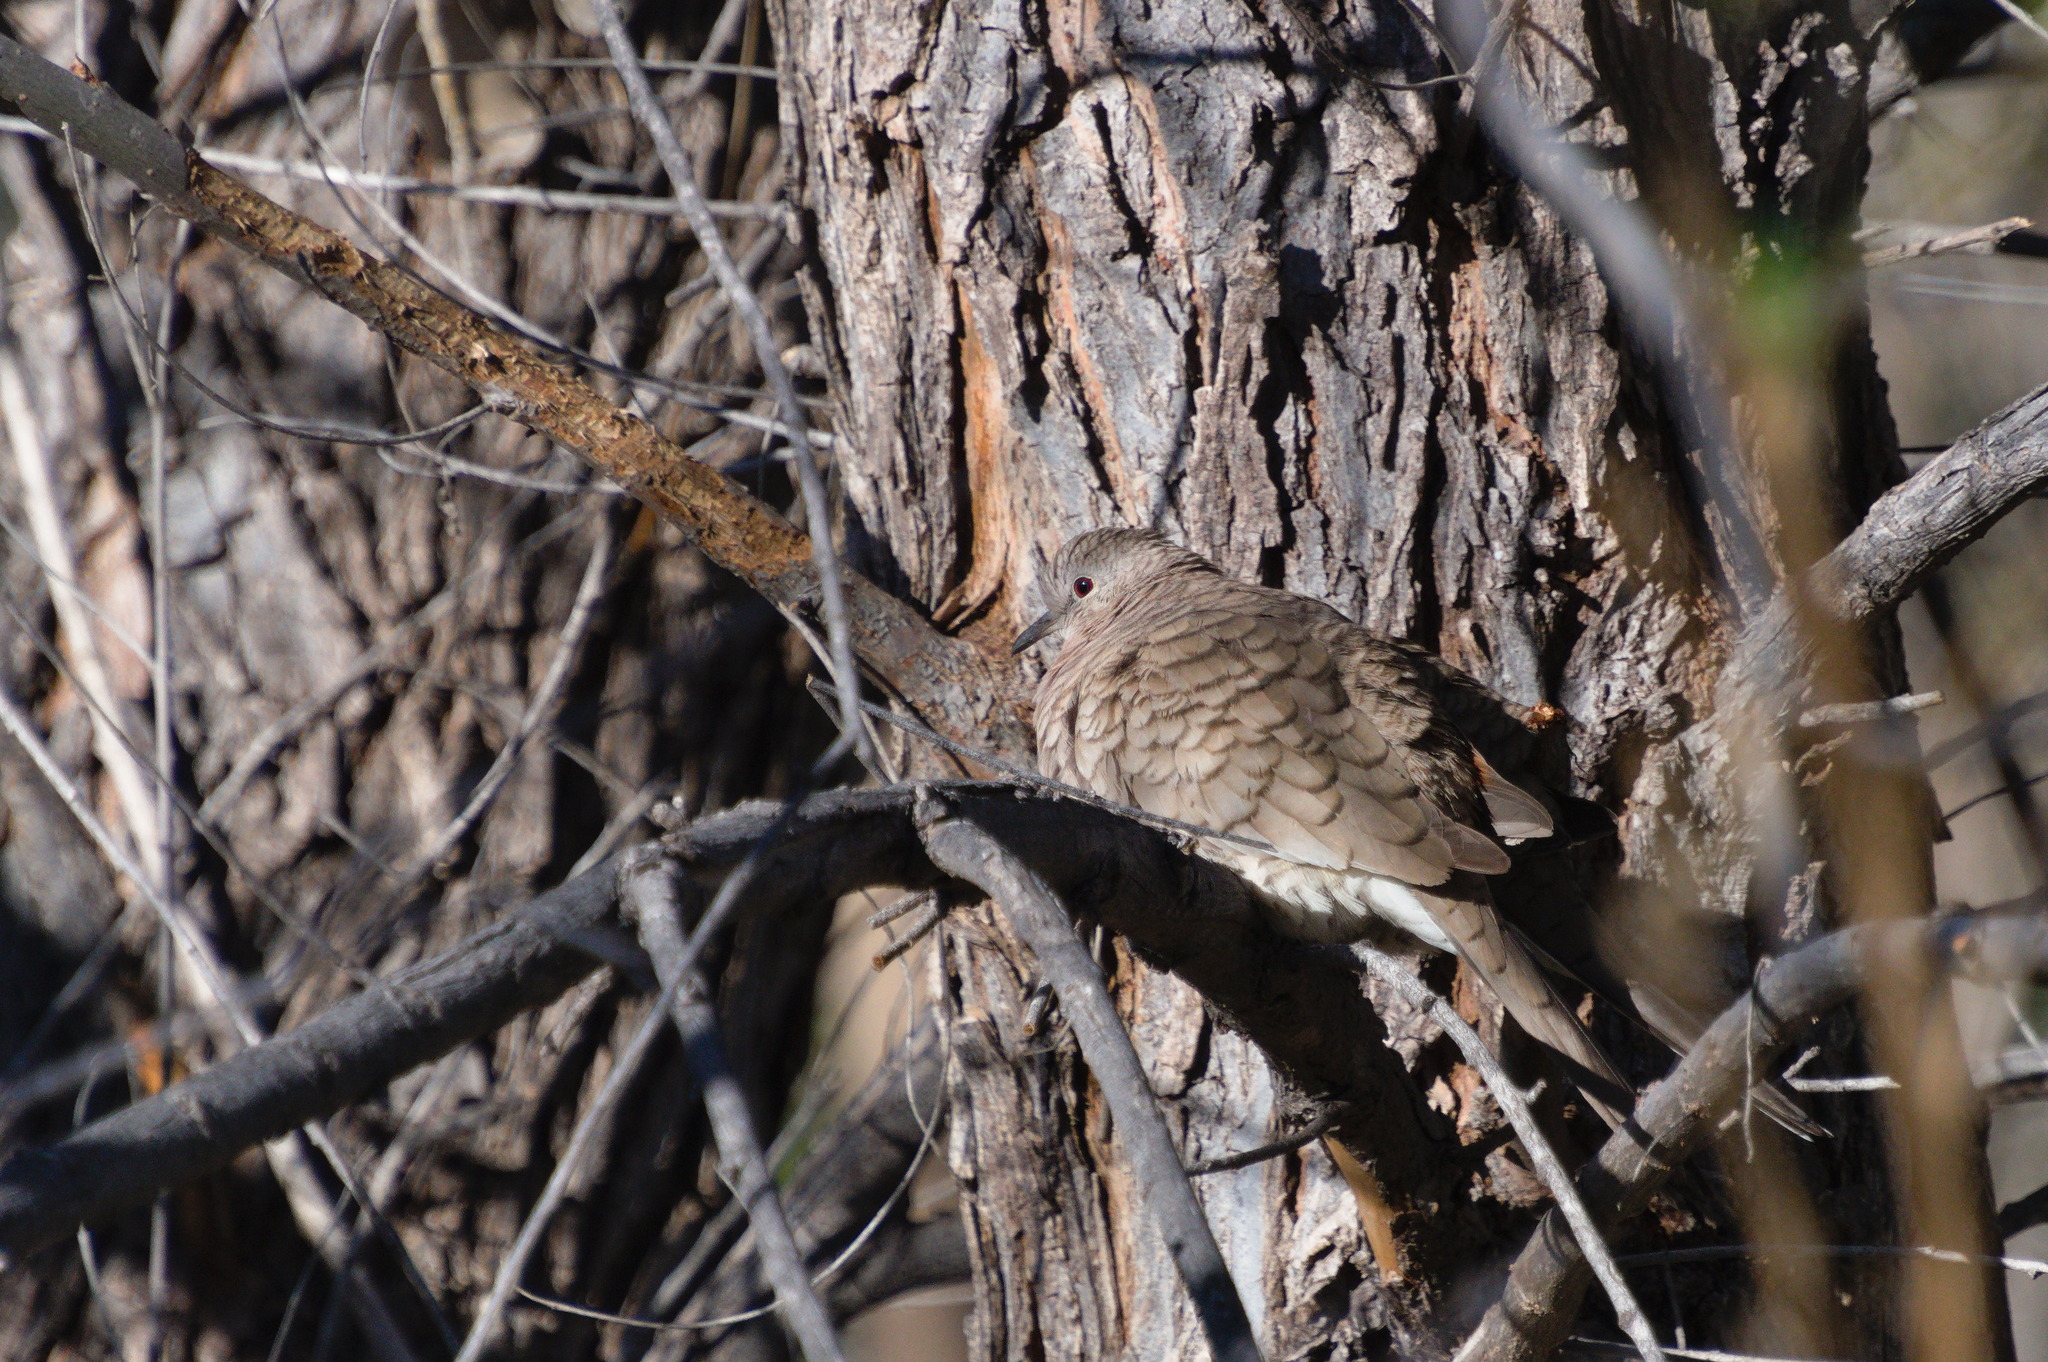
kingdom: Animalia
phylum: Chordata
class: Aves
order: Columbiformes
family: Columbidae
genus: Columbina
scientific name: Columbina inca
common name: Inca dove
